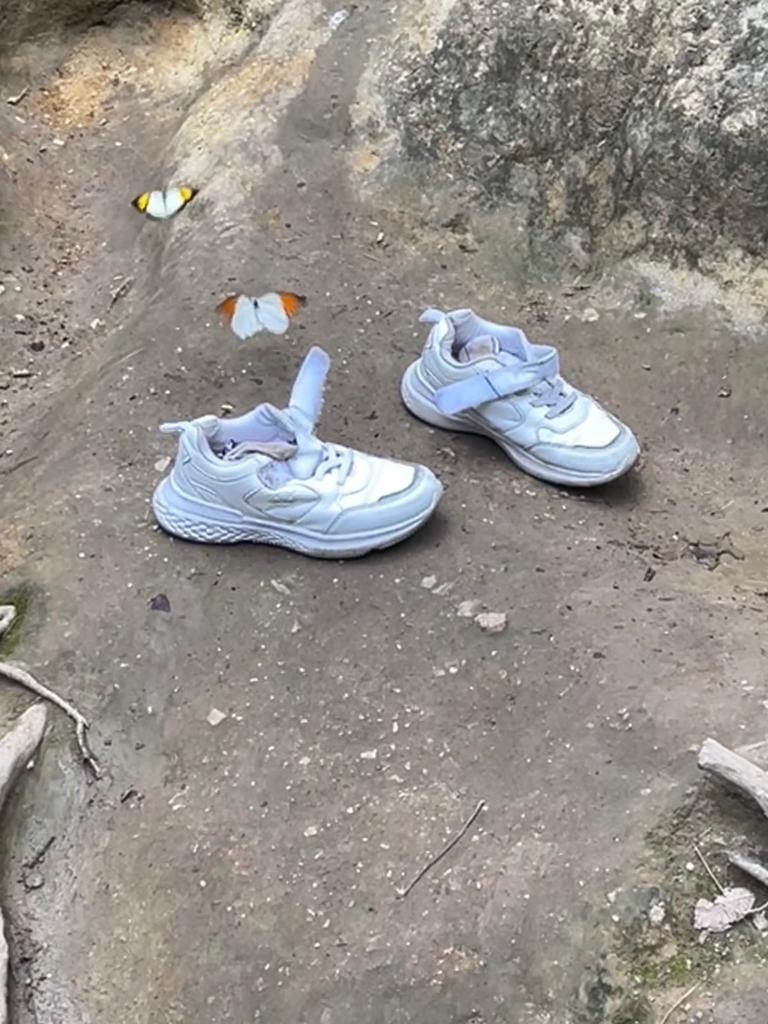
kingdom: Animalia
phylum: Arthropoda
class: Insecta
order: Lepidoptera
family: Pieridae
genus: Hebomoia
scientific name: Hebomoia glaucippe
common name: Great orange tip
